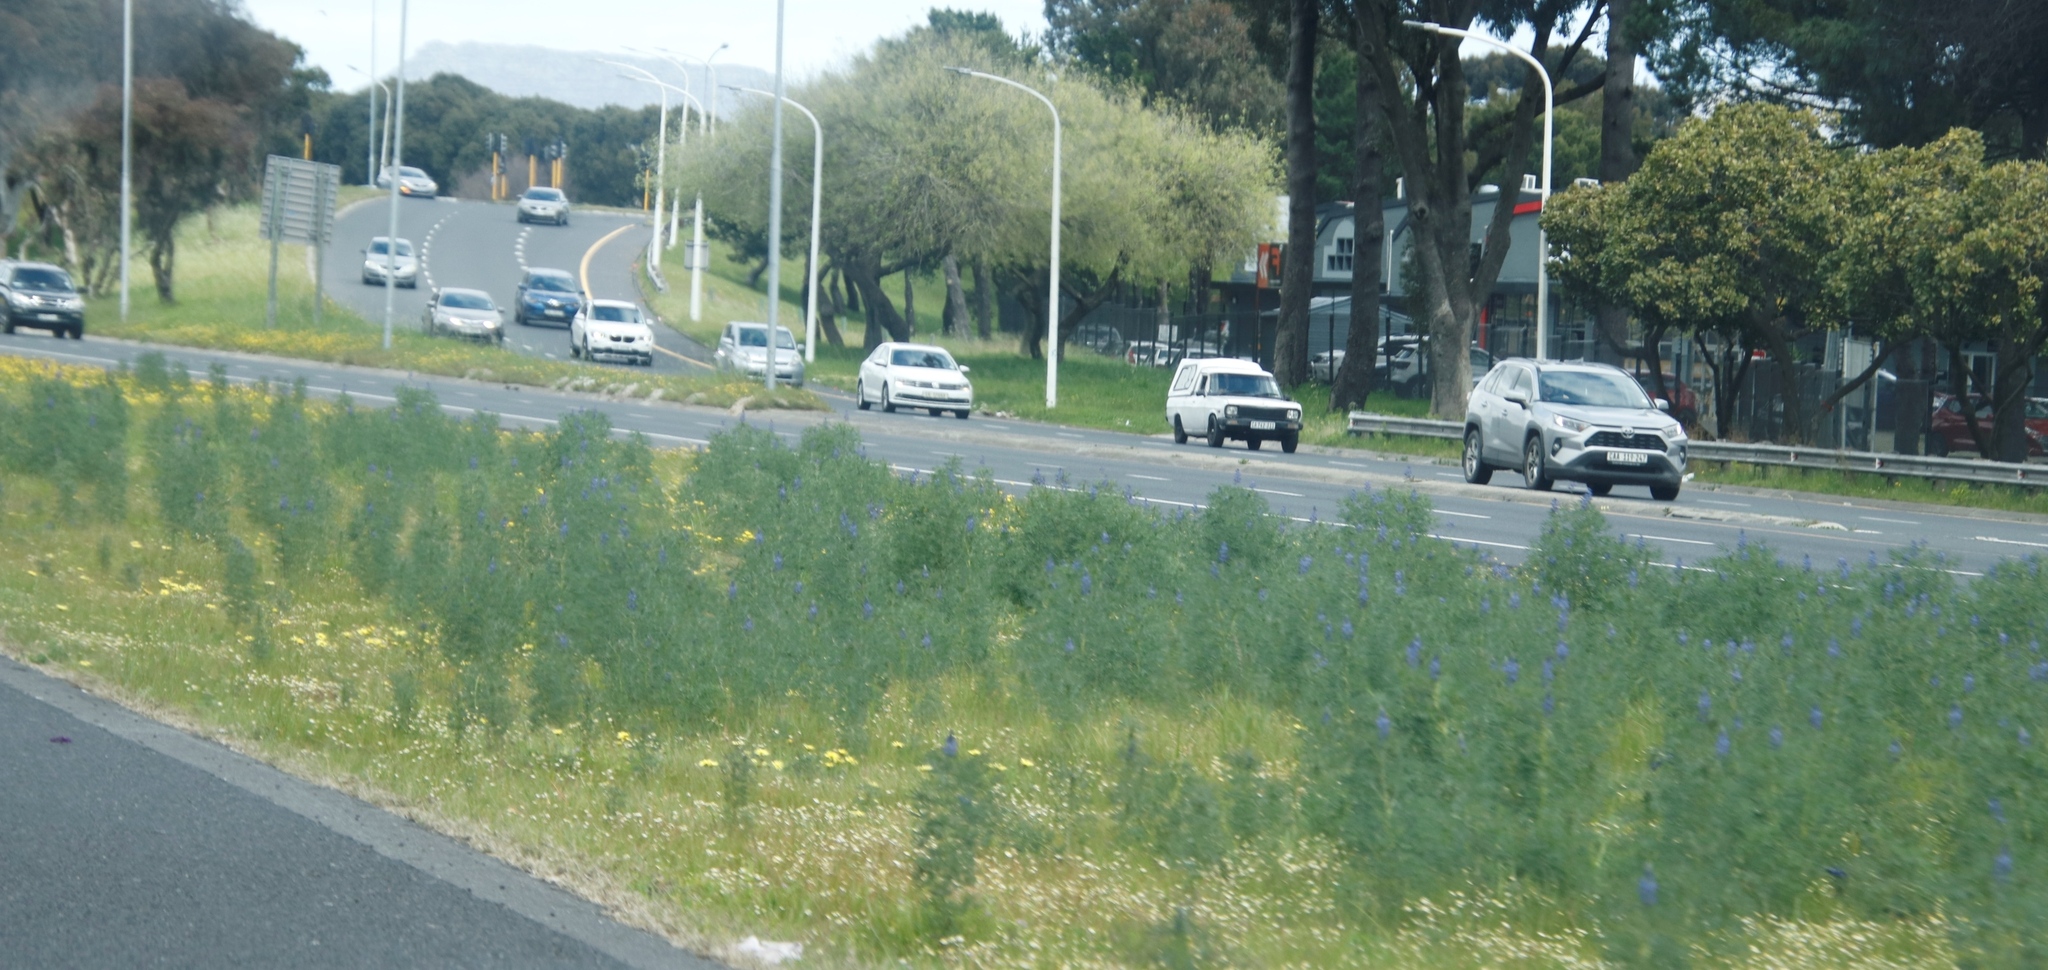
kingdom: Plantae
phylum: Tracheophyta
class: Magnoliopsida
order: Fabales
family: Fabaceae
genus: Lupinus
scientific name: Lupinus angustifolius
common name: Narrow-leaved lupin
